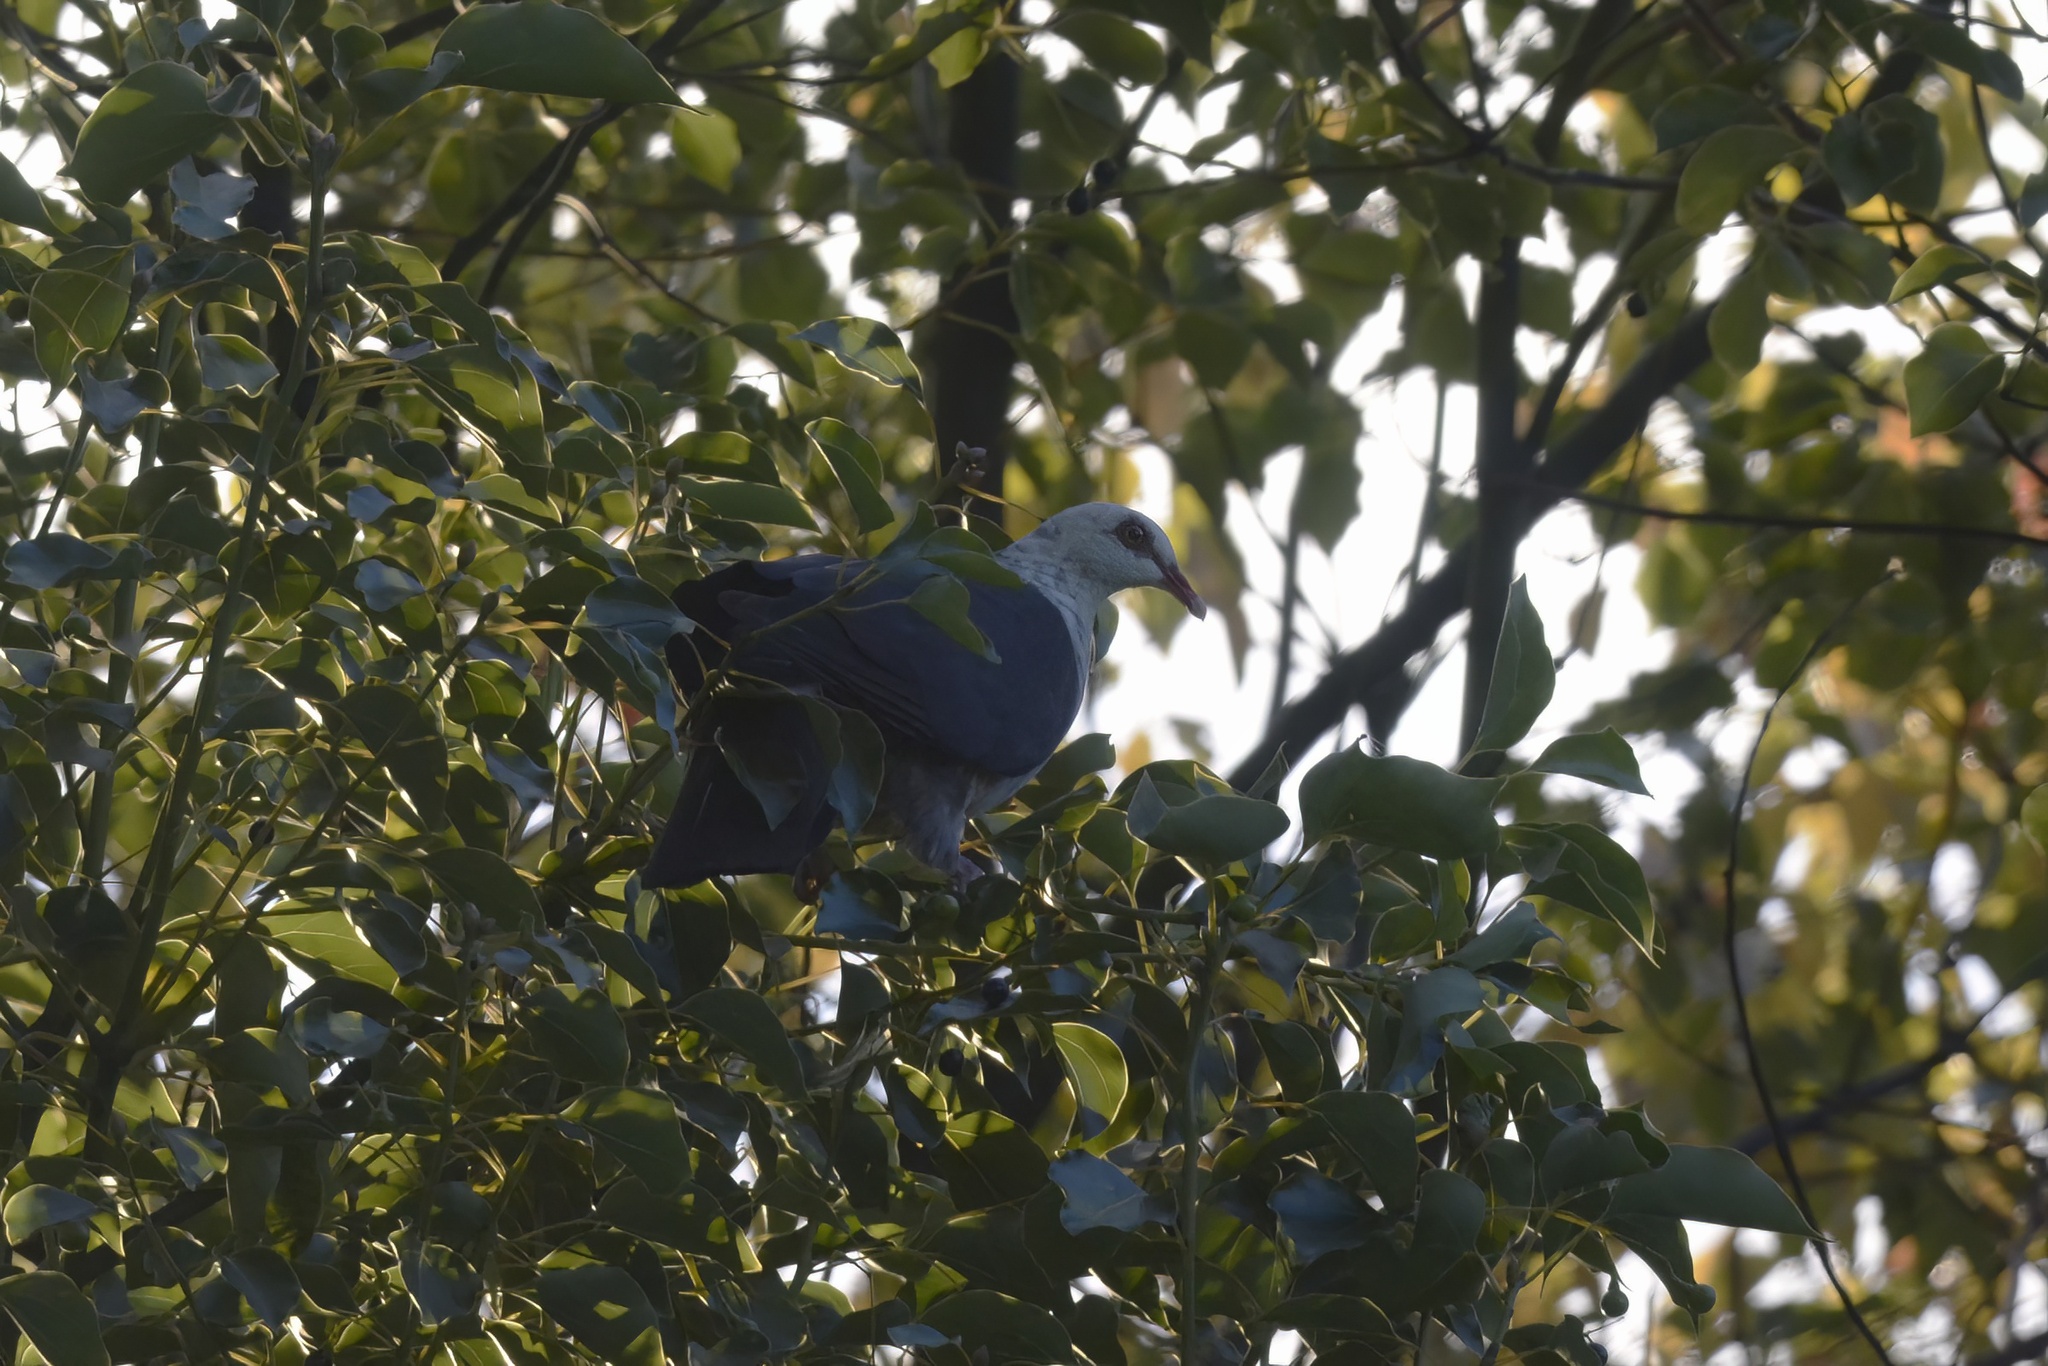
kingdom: Animalia
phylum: Chordata
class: Aves
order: Columbiformes
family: Columbidae
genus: Columba
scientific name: Columba leucomela
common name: White-headed pigeon
